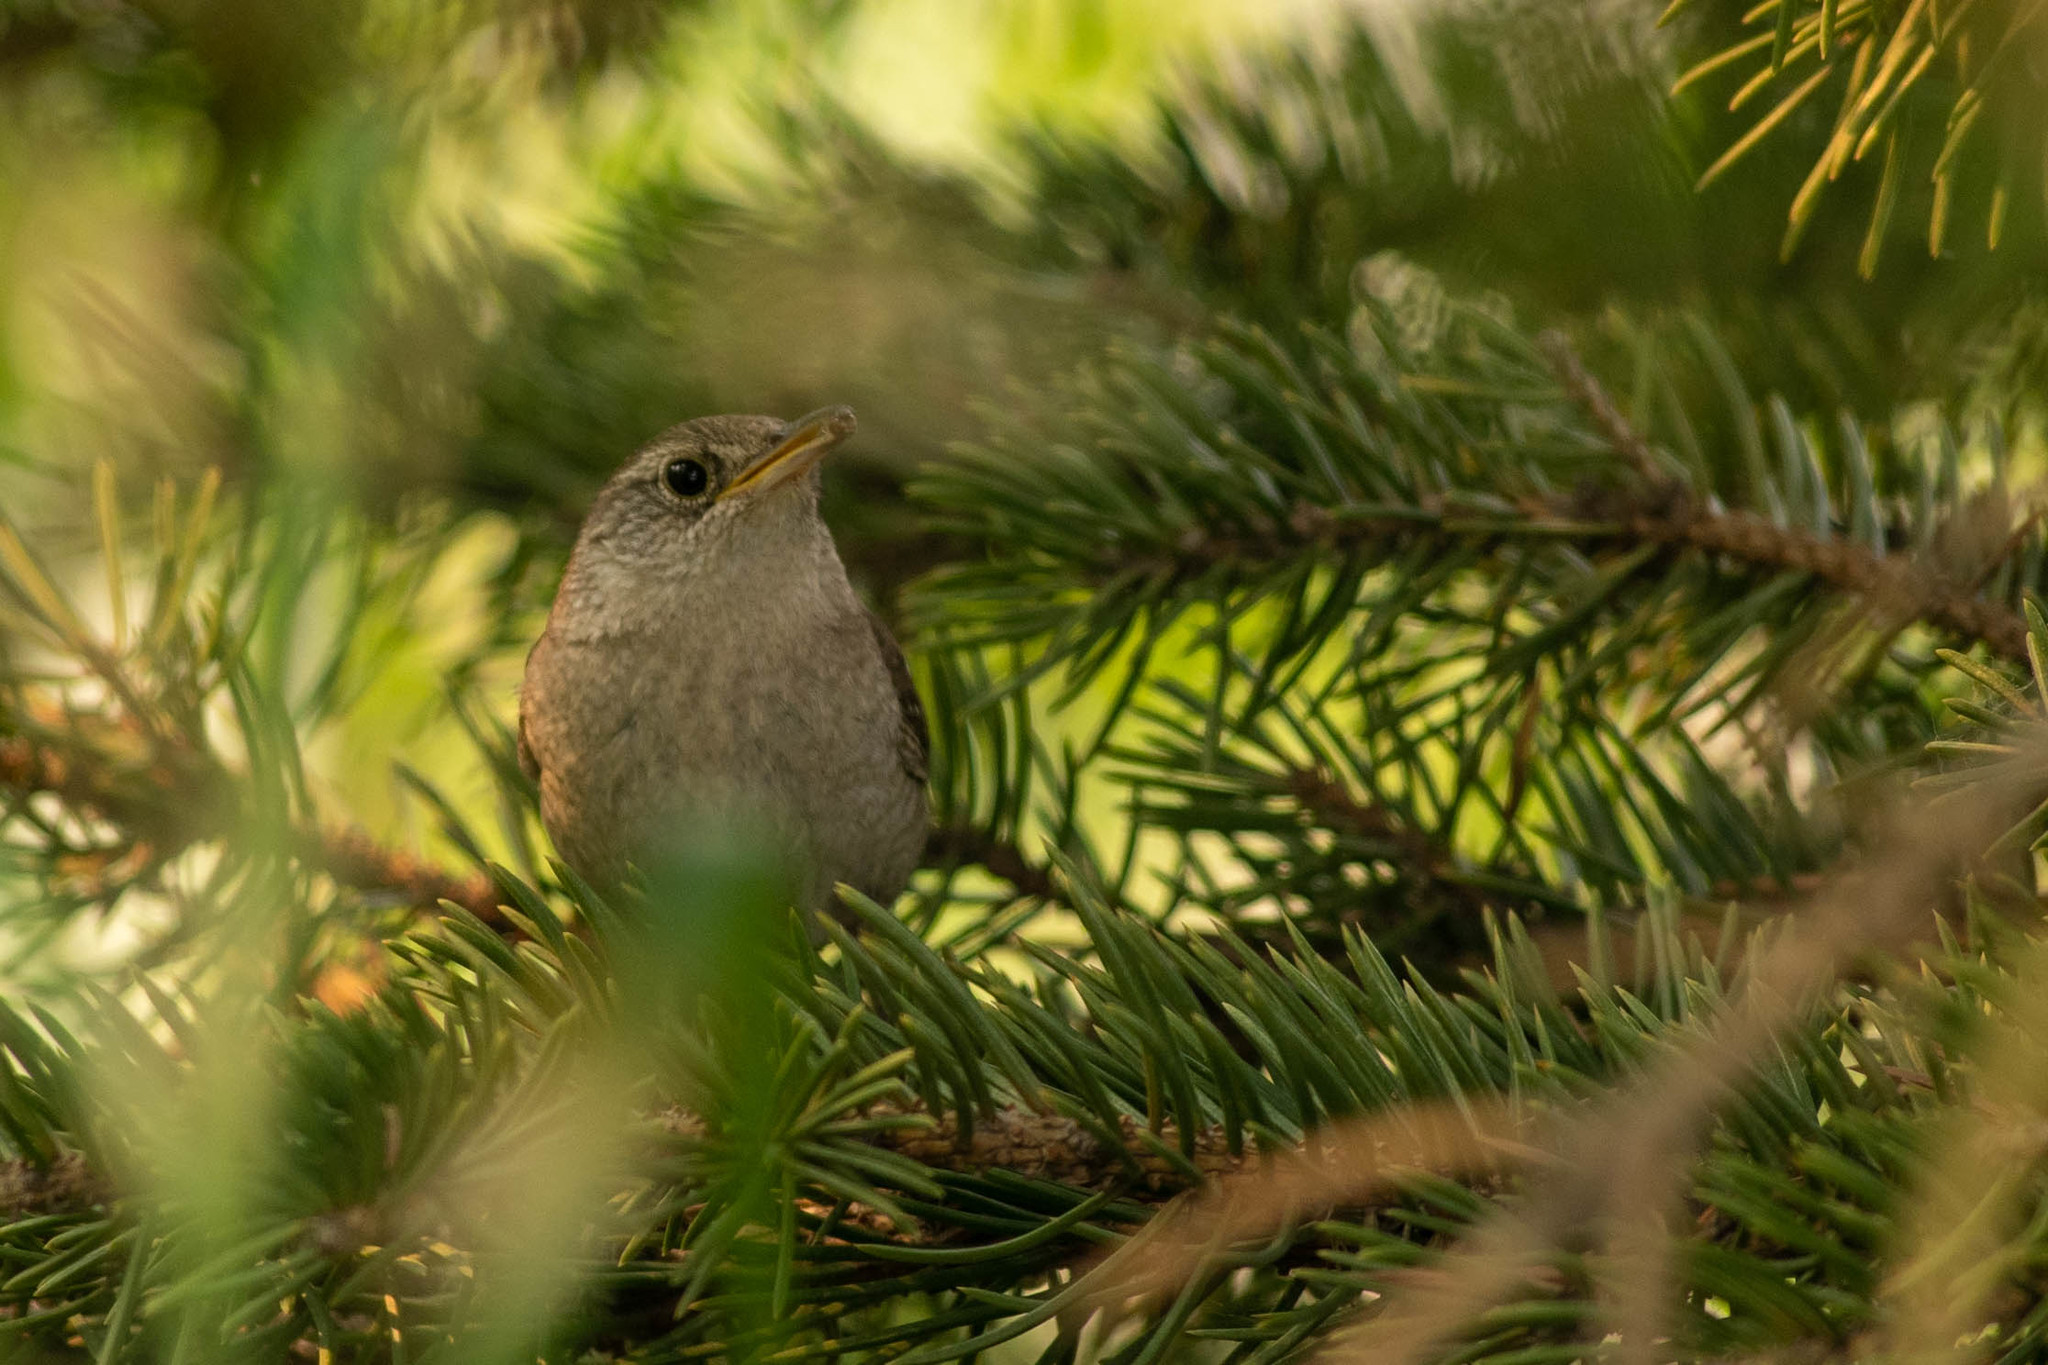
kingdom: Animalia
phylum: Chordata
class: Aves
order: Passeriformes
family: Troglodytidae
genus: Troglodytes
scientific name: Troglodytes aedon
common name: House wren
